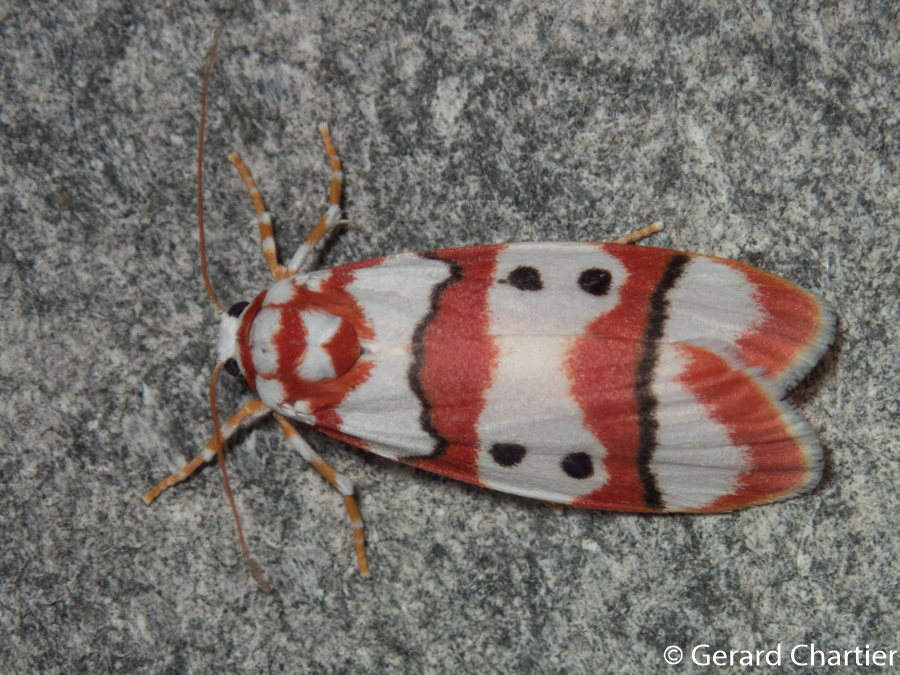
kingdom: Animalia
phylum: Arthropoda
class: Insecta
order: Lepidoptera
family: Erebidae
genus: Cyana
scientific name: Cyana weerawoothi
